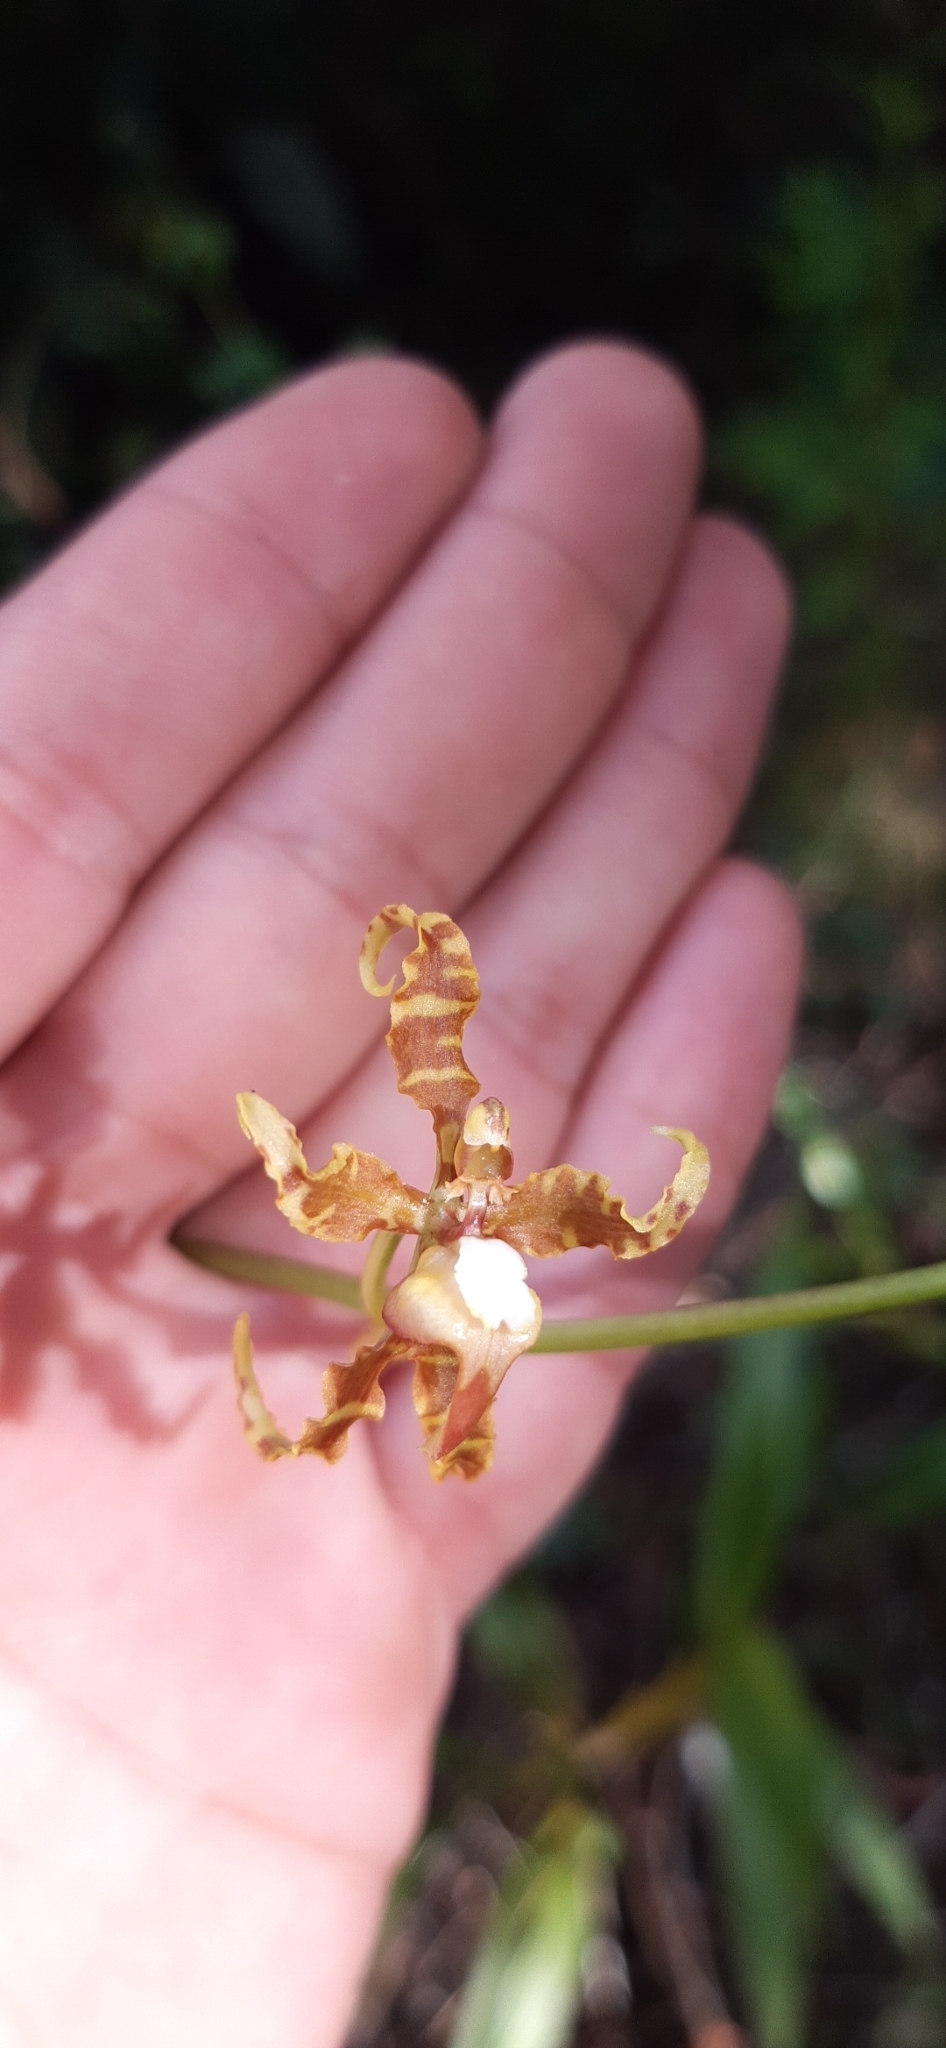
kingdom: Plantae
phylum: Tracheophyta
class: Liliopsida
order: Asparagales
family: Orchidaceae
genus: Cyrtochilum
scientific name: Cyrtochilum divaricatum
